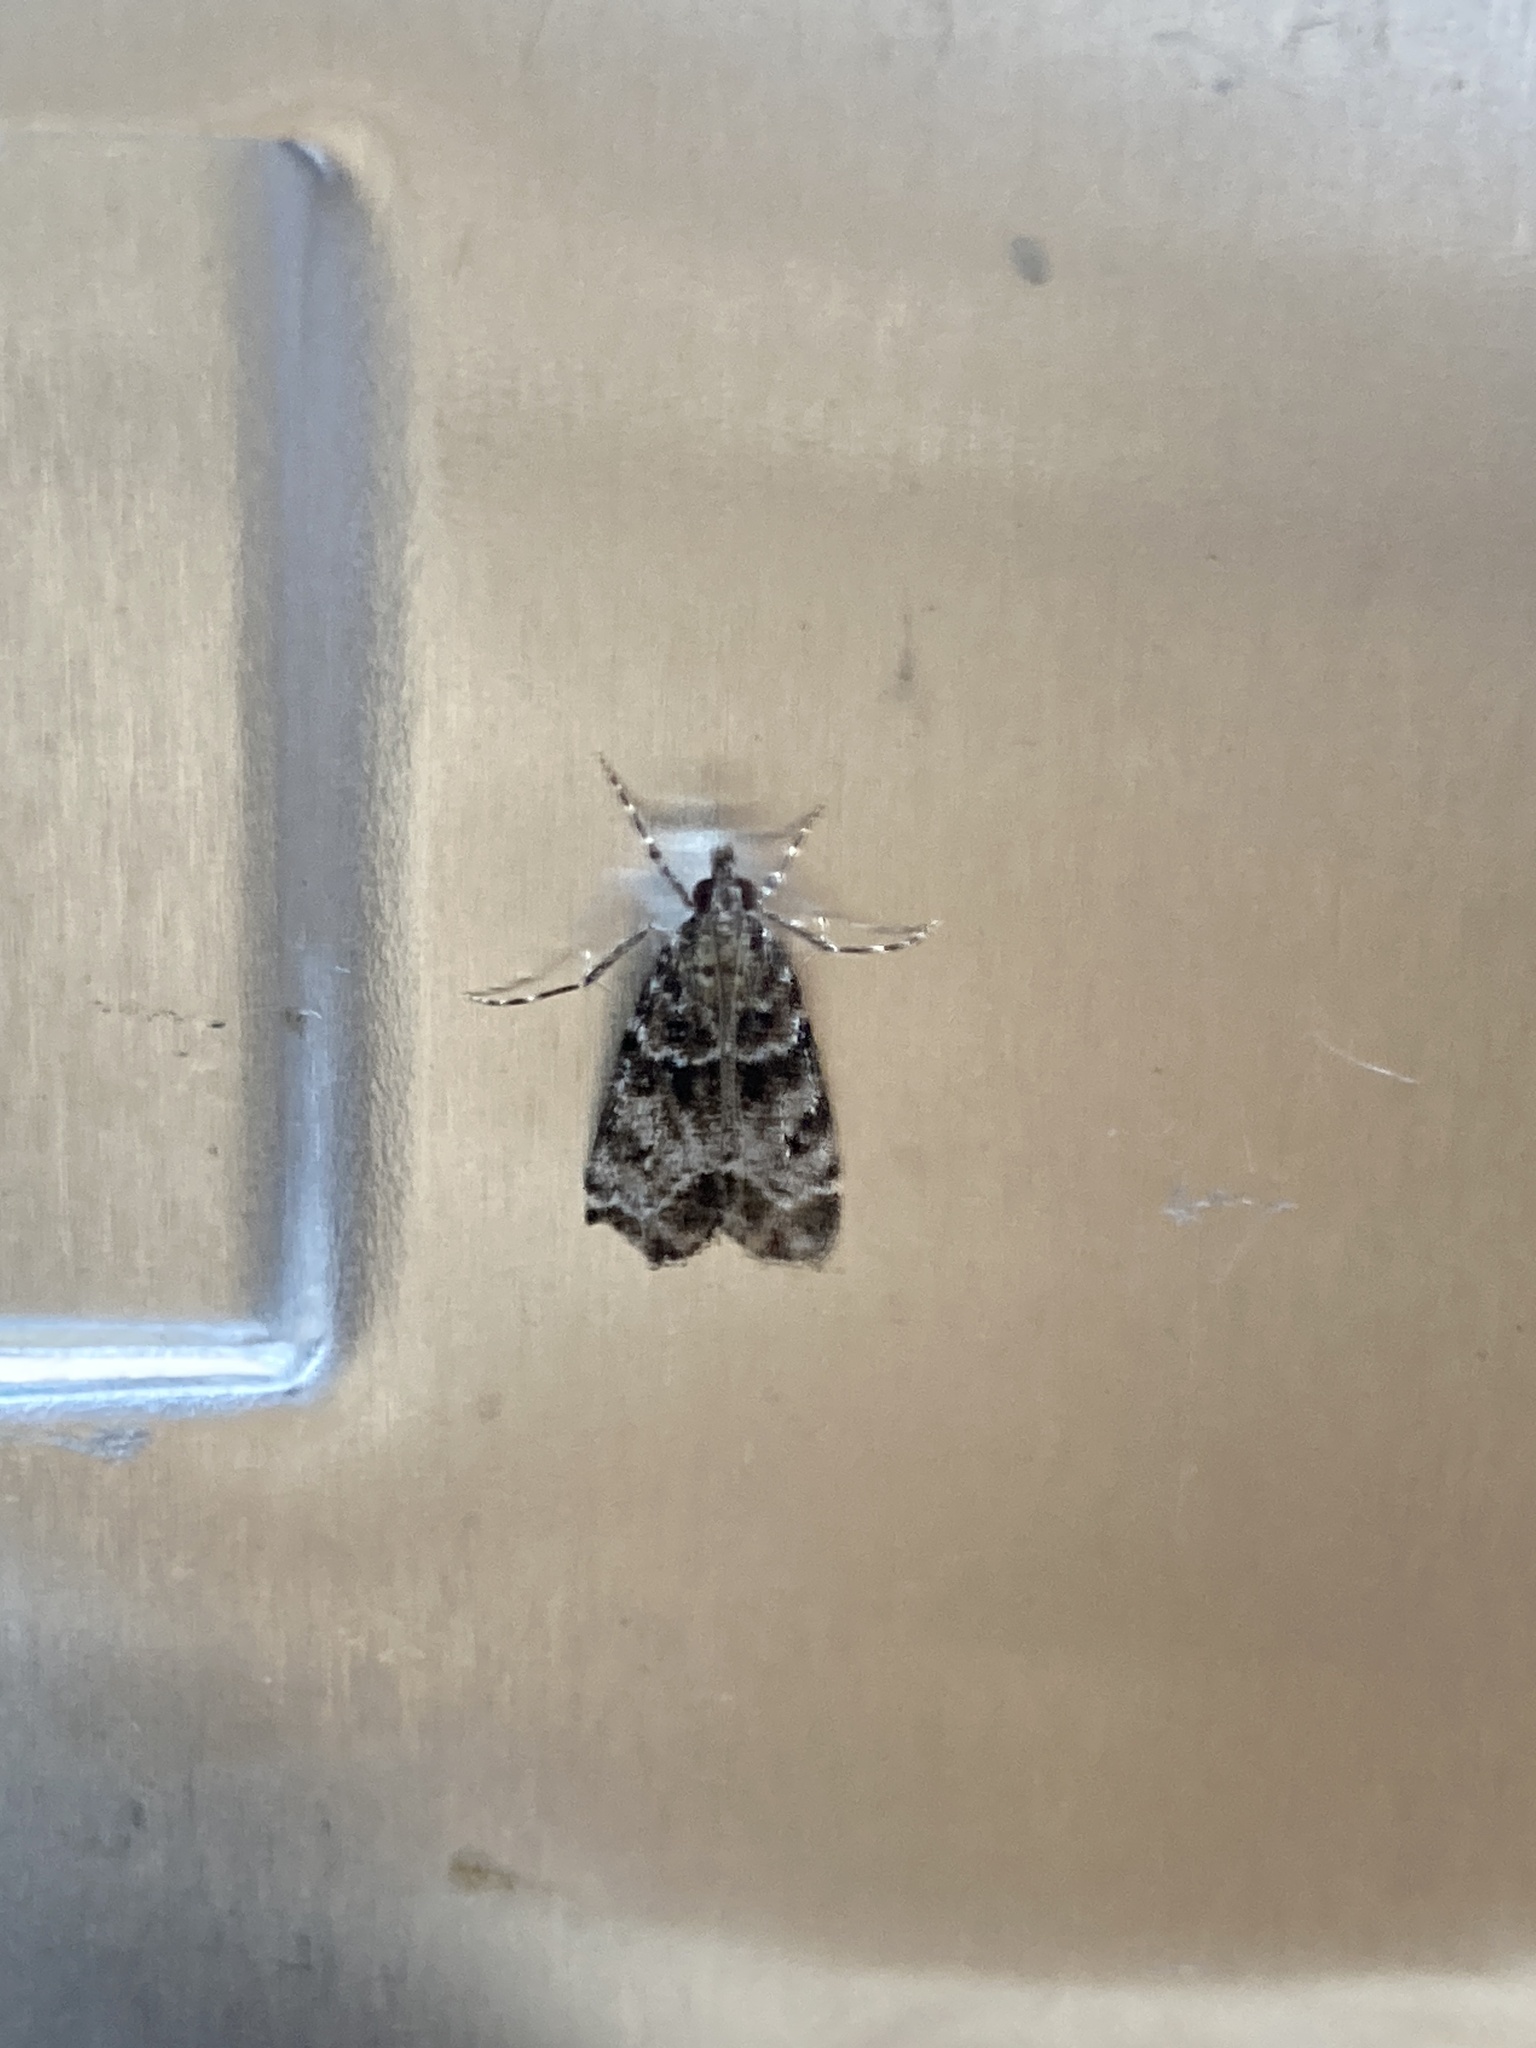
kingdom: Animalia
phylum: Arthropoda
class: Insecta
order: Lepidoptera
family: Crambidae
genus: Eudonia
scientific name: Eudonia mercurella
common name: Small grey
